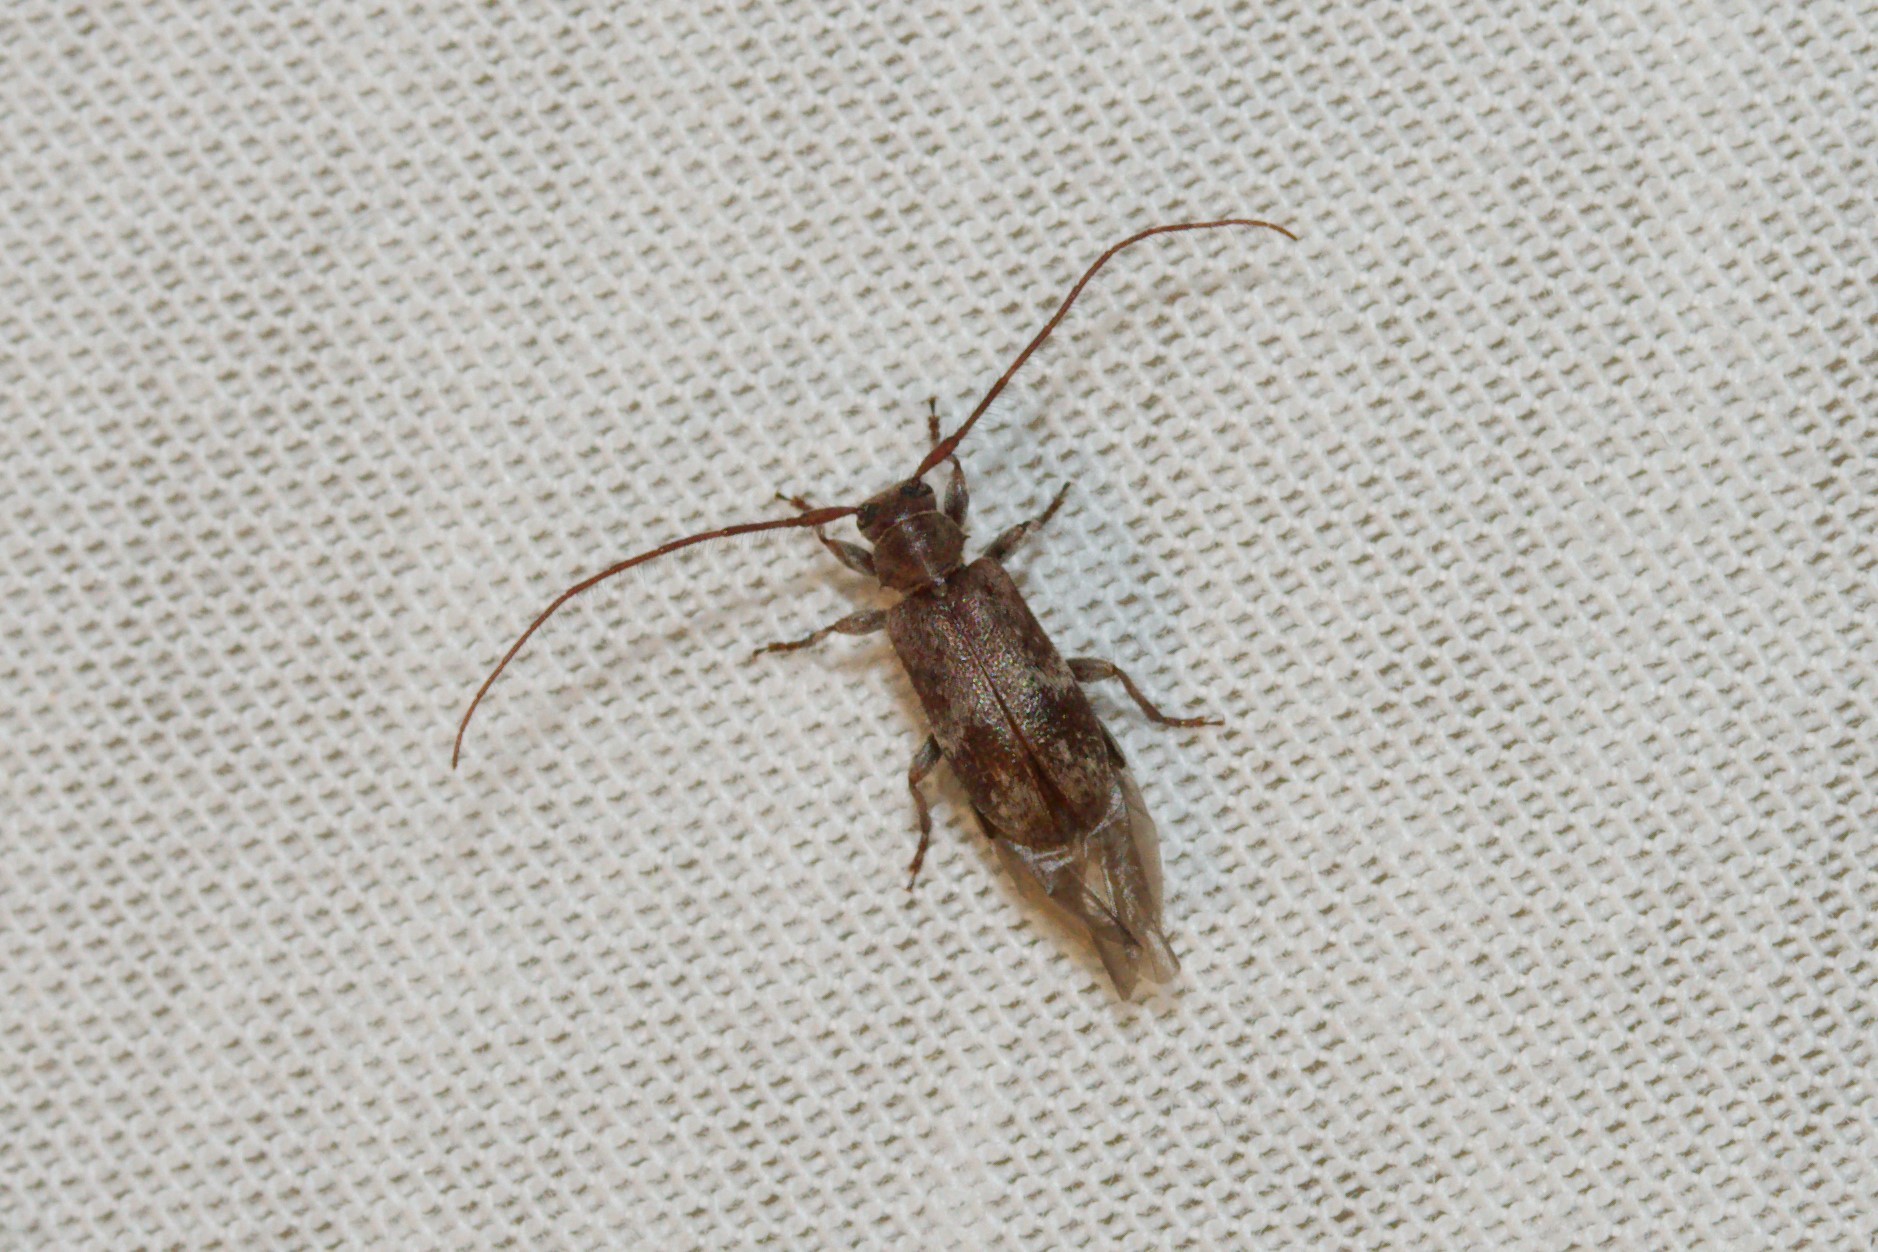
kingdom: Animalia
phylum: Arthropoda
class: Insecta
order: Coleoptera
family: Cerambycidae
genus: Exocentrus
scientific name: Exocentrus adspersus
